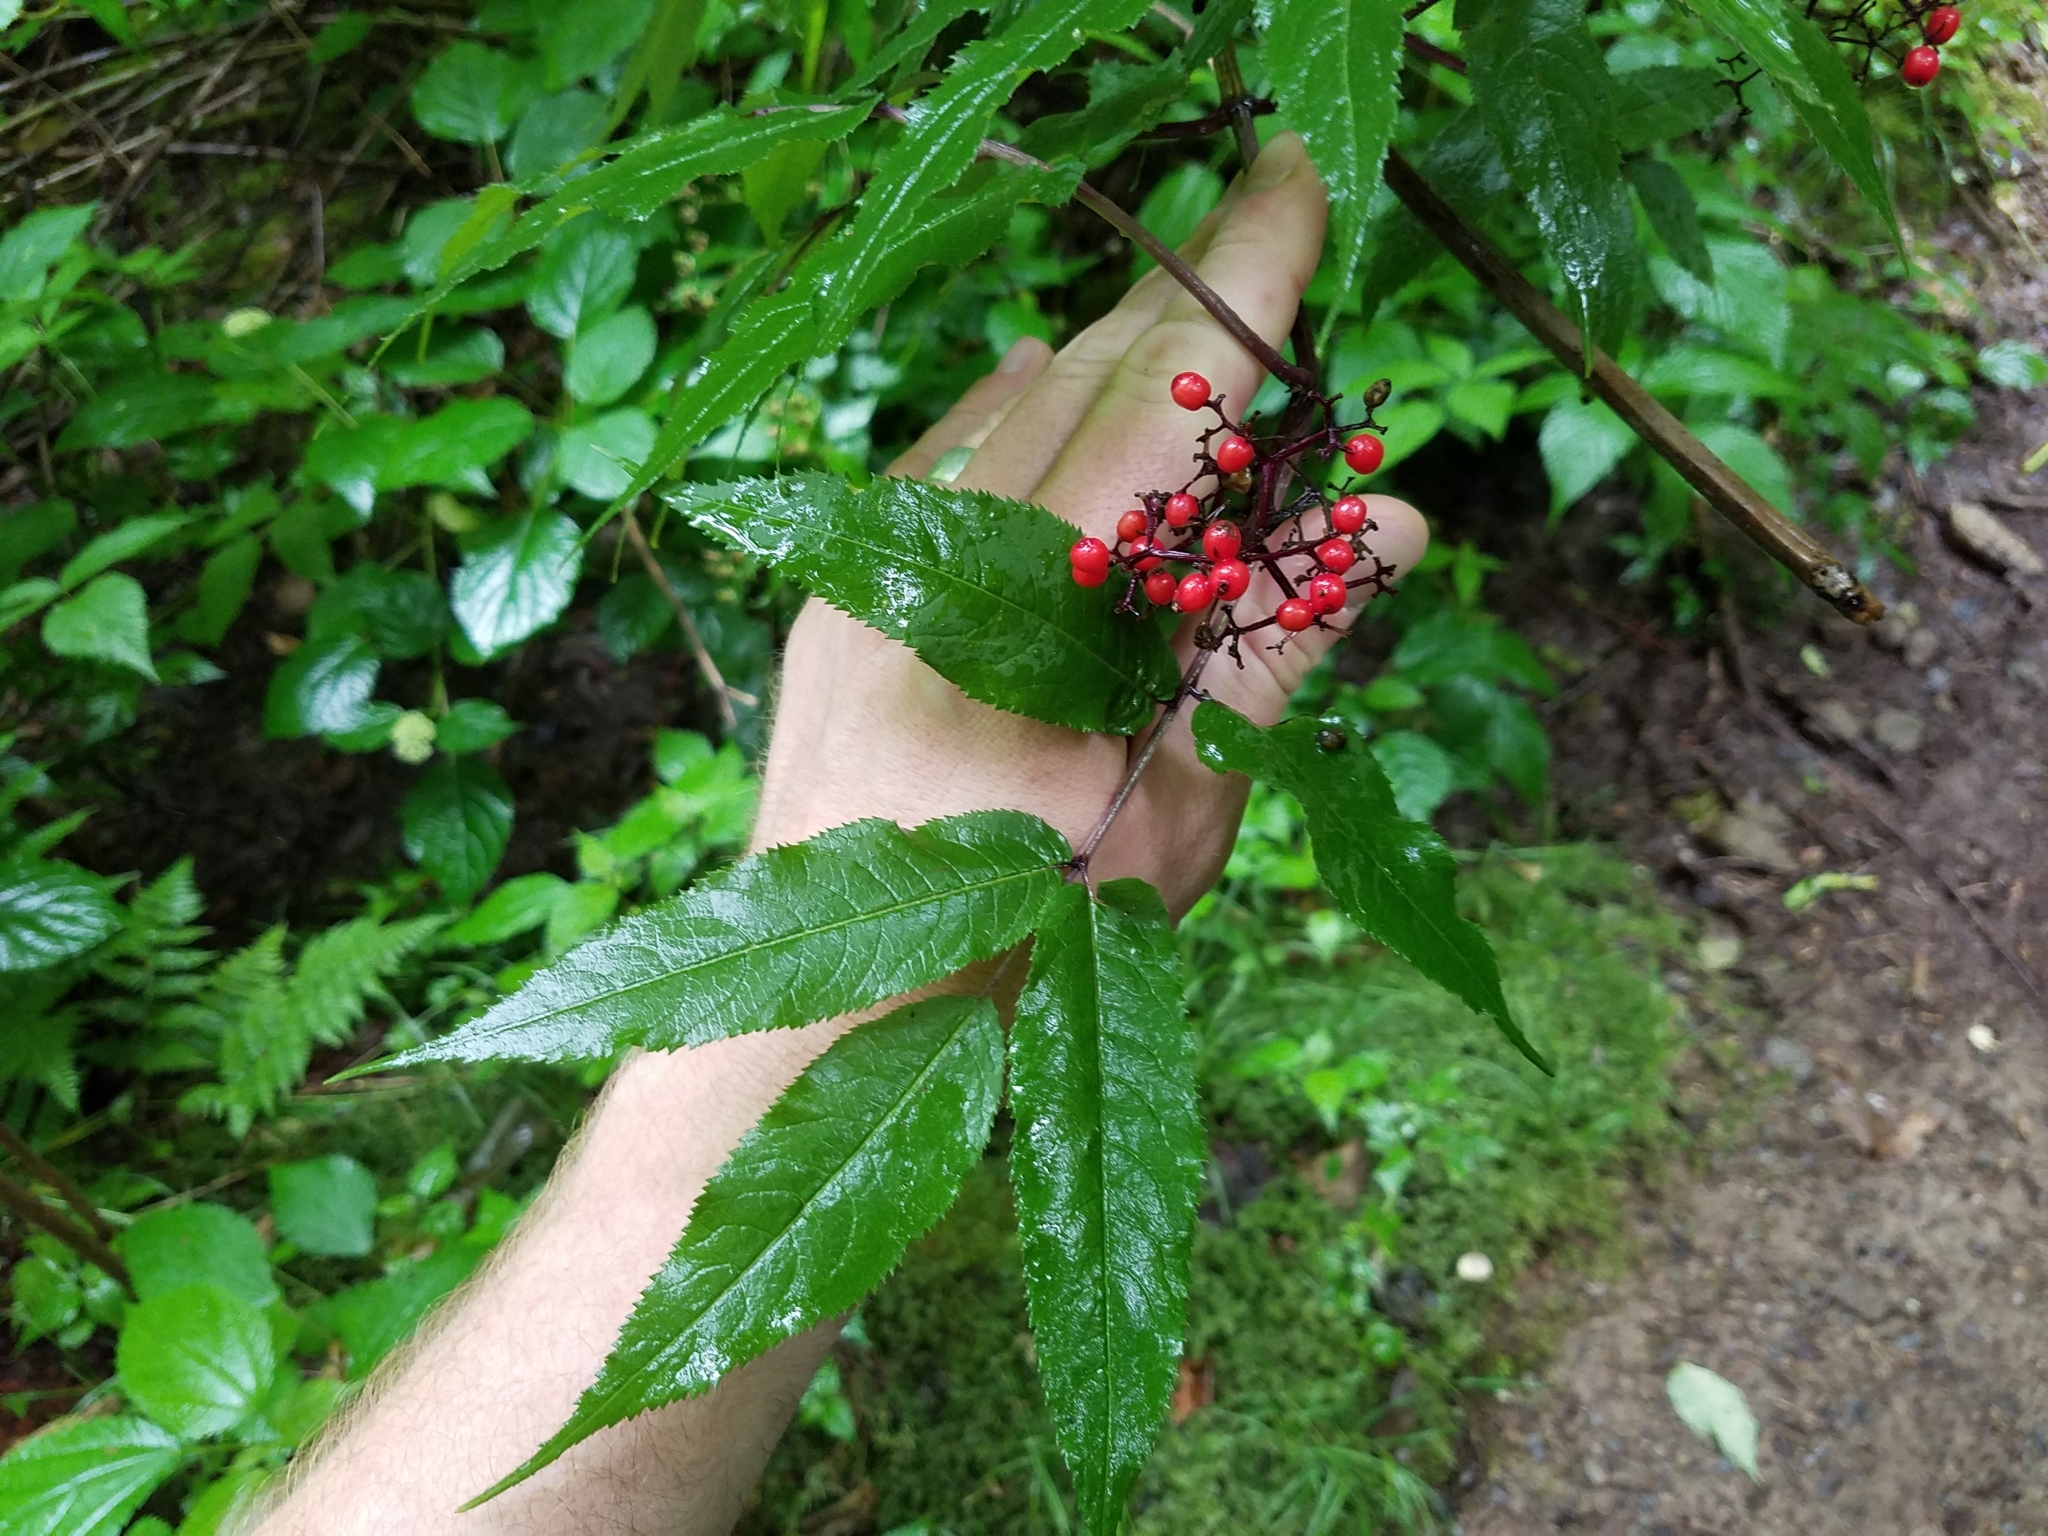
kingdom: Plantae
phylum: Tracheophyta
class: Magnoliopsida
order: Dipsacales
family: Viburnaceae
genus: Sambucus
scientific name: Sambucus racemosa
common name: Red-berried elder
